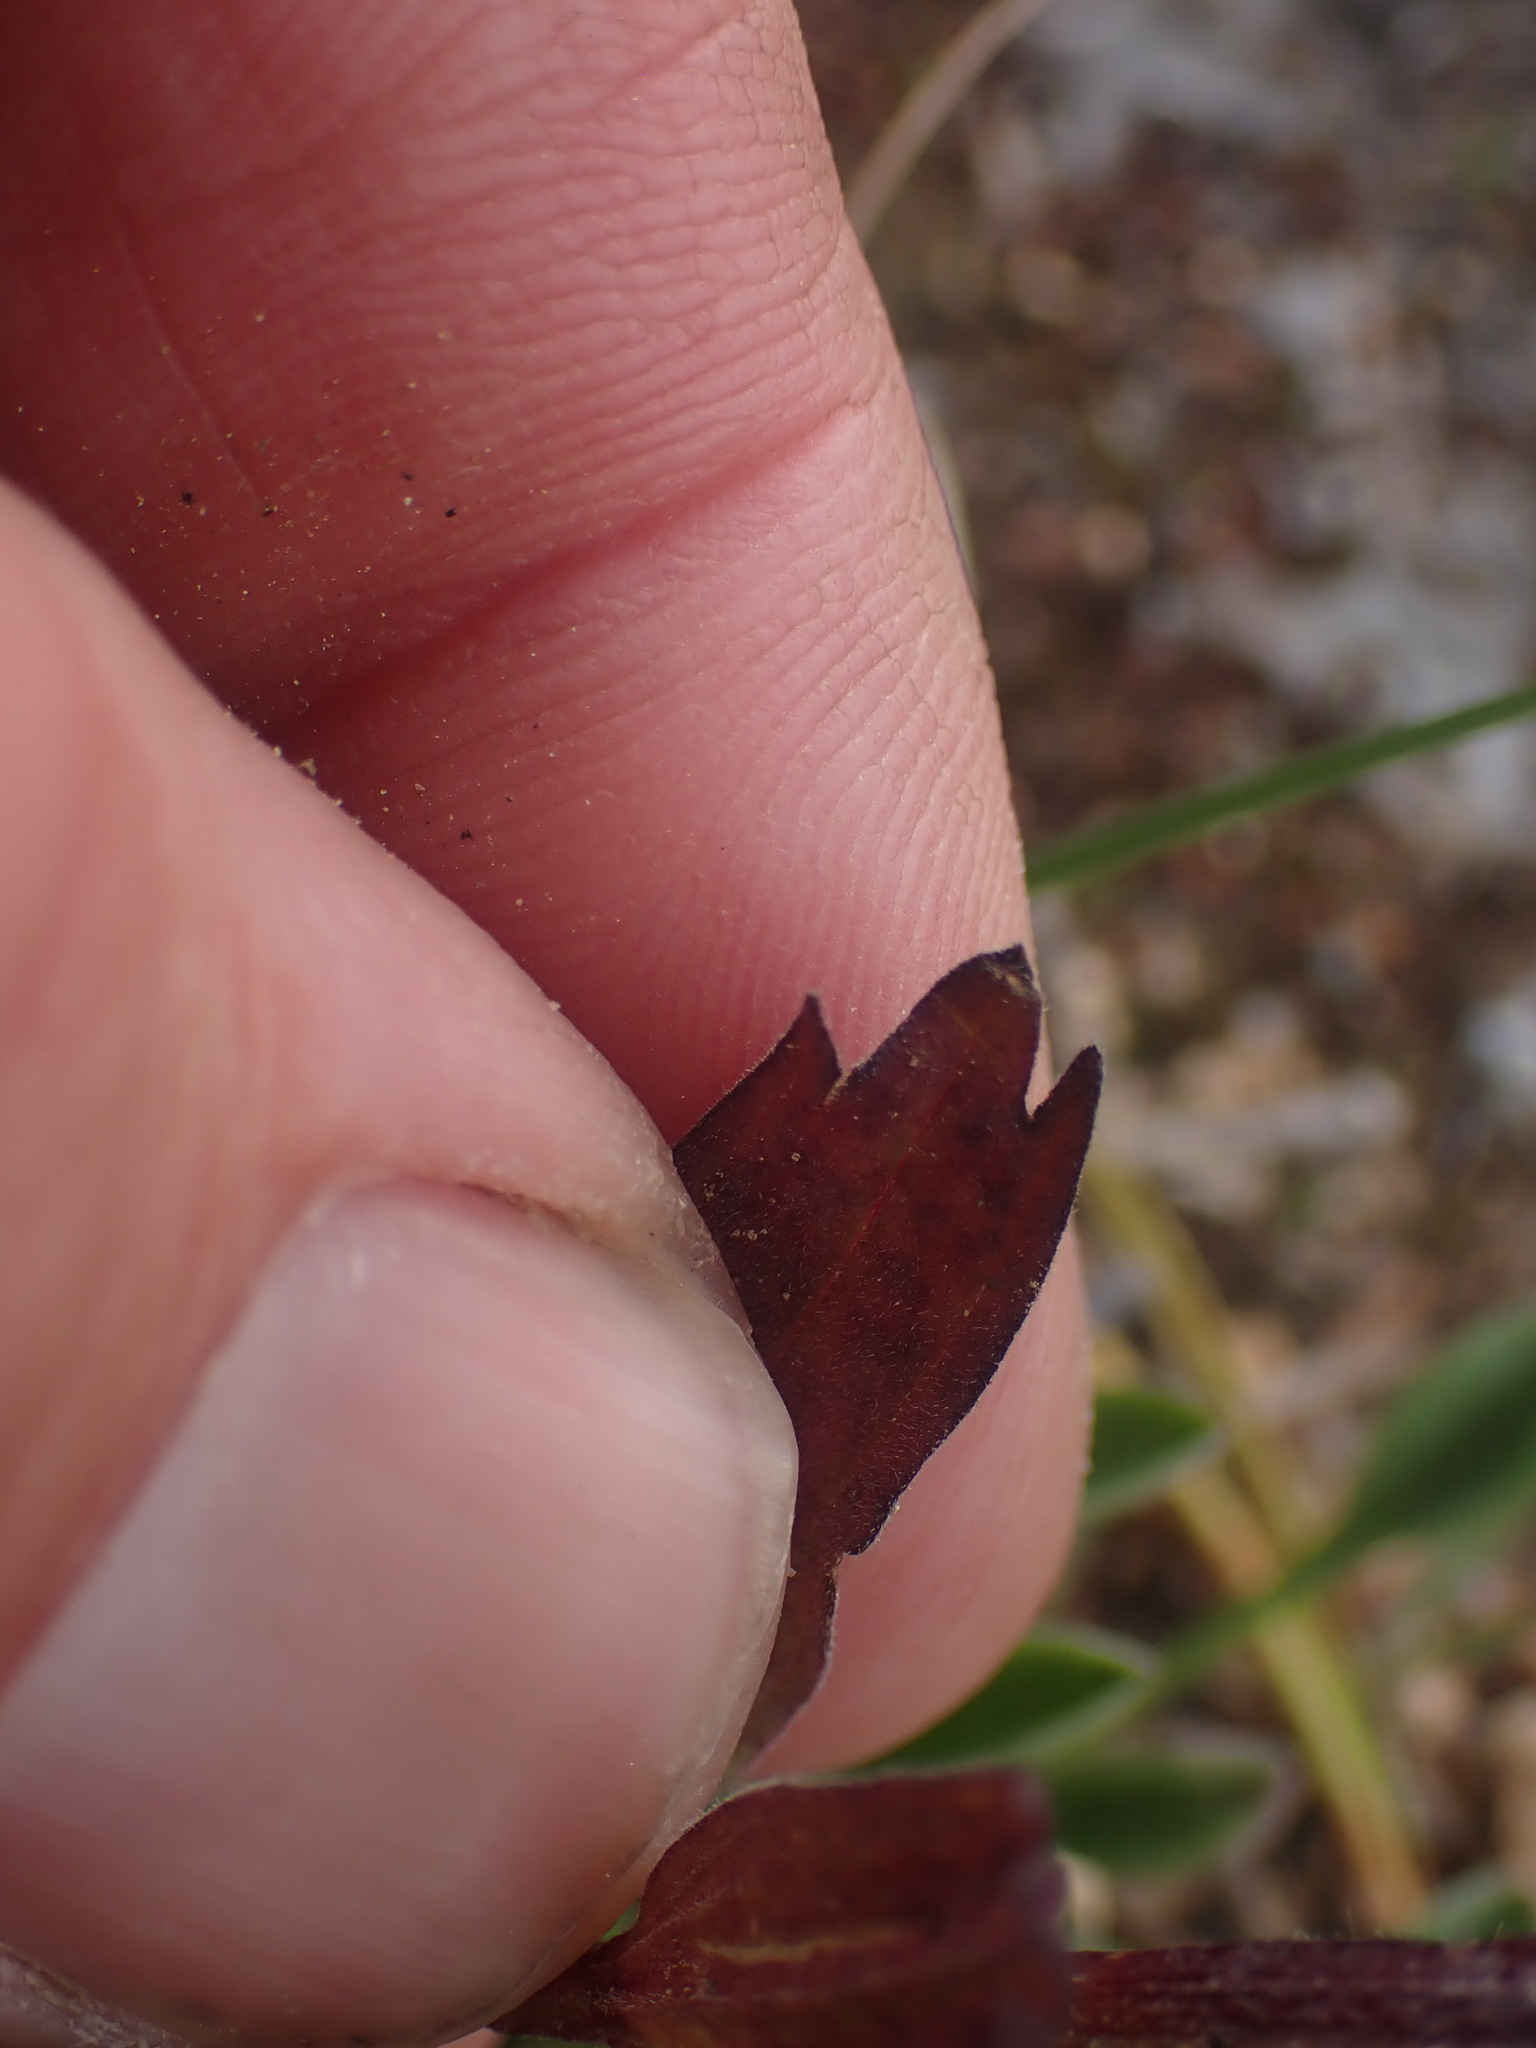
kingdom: Plantae
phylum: Tracheophyta
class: Magnoliopsida
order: Lamiales
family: Orobanchaceae
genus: Castilleja
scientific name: Castilleja elmeri
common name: Elmer's paintbrush
